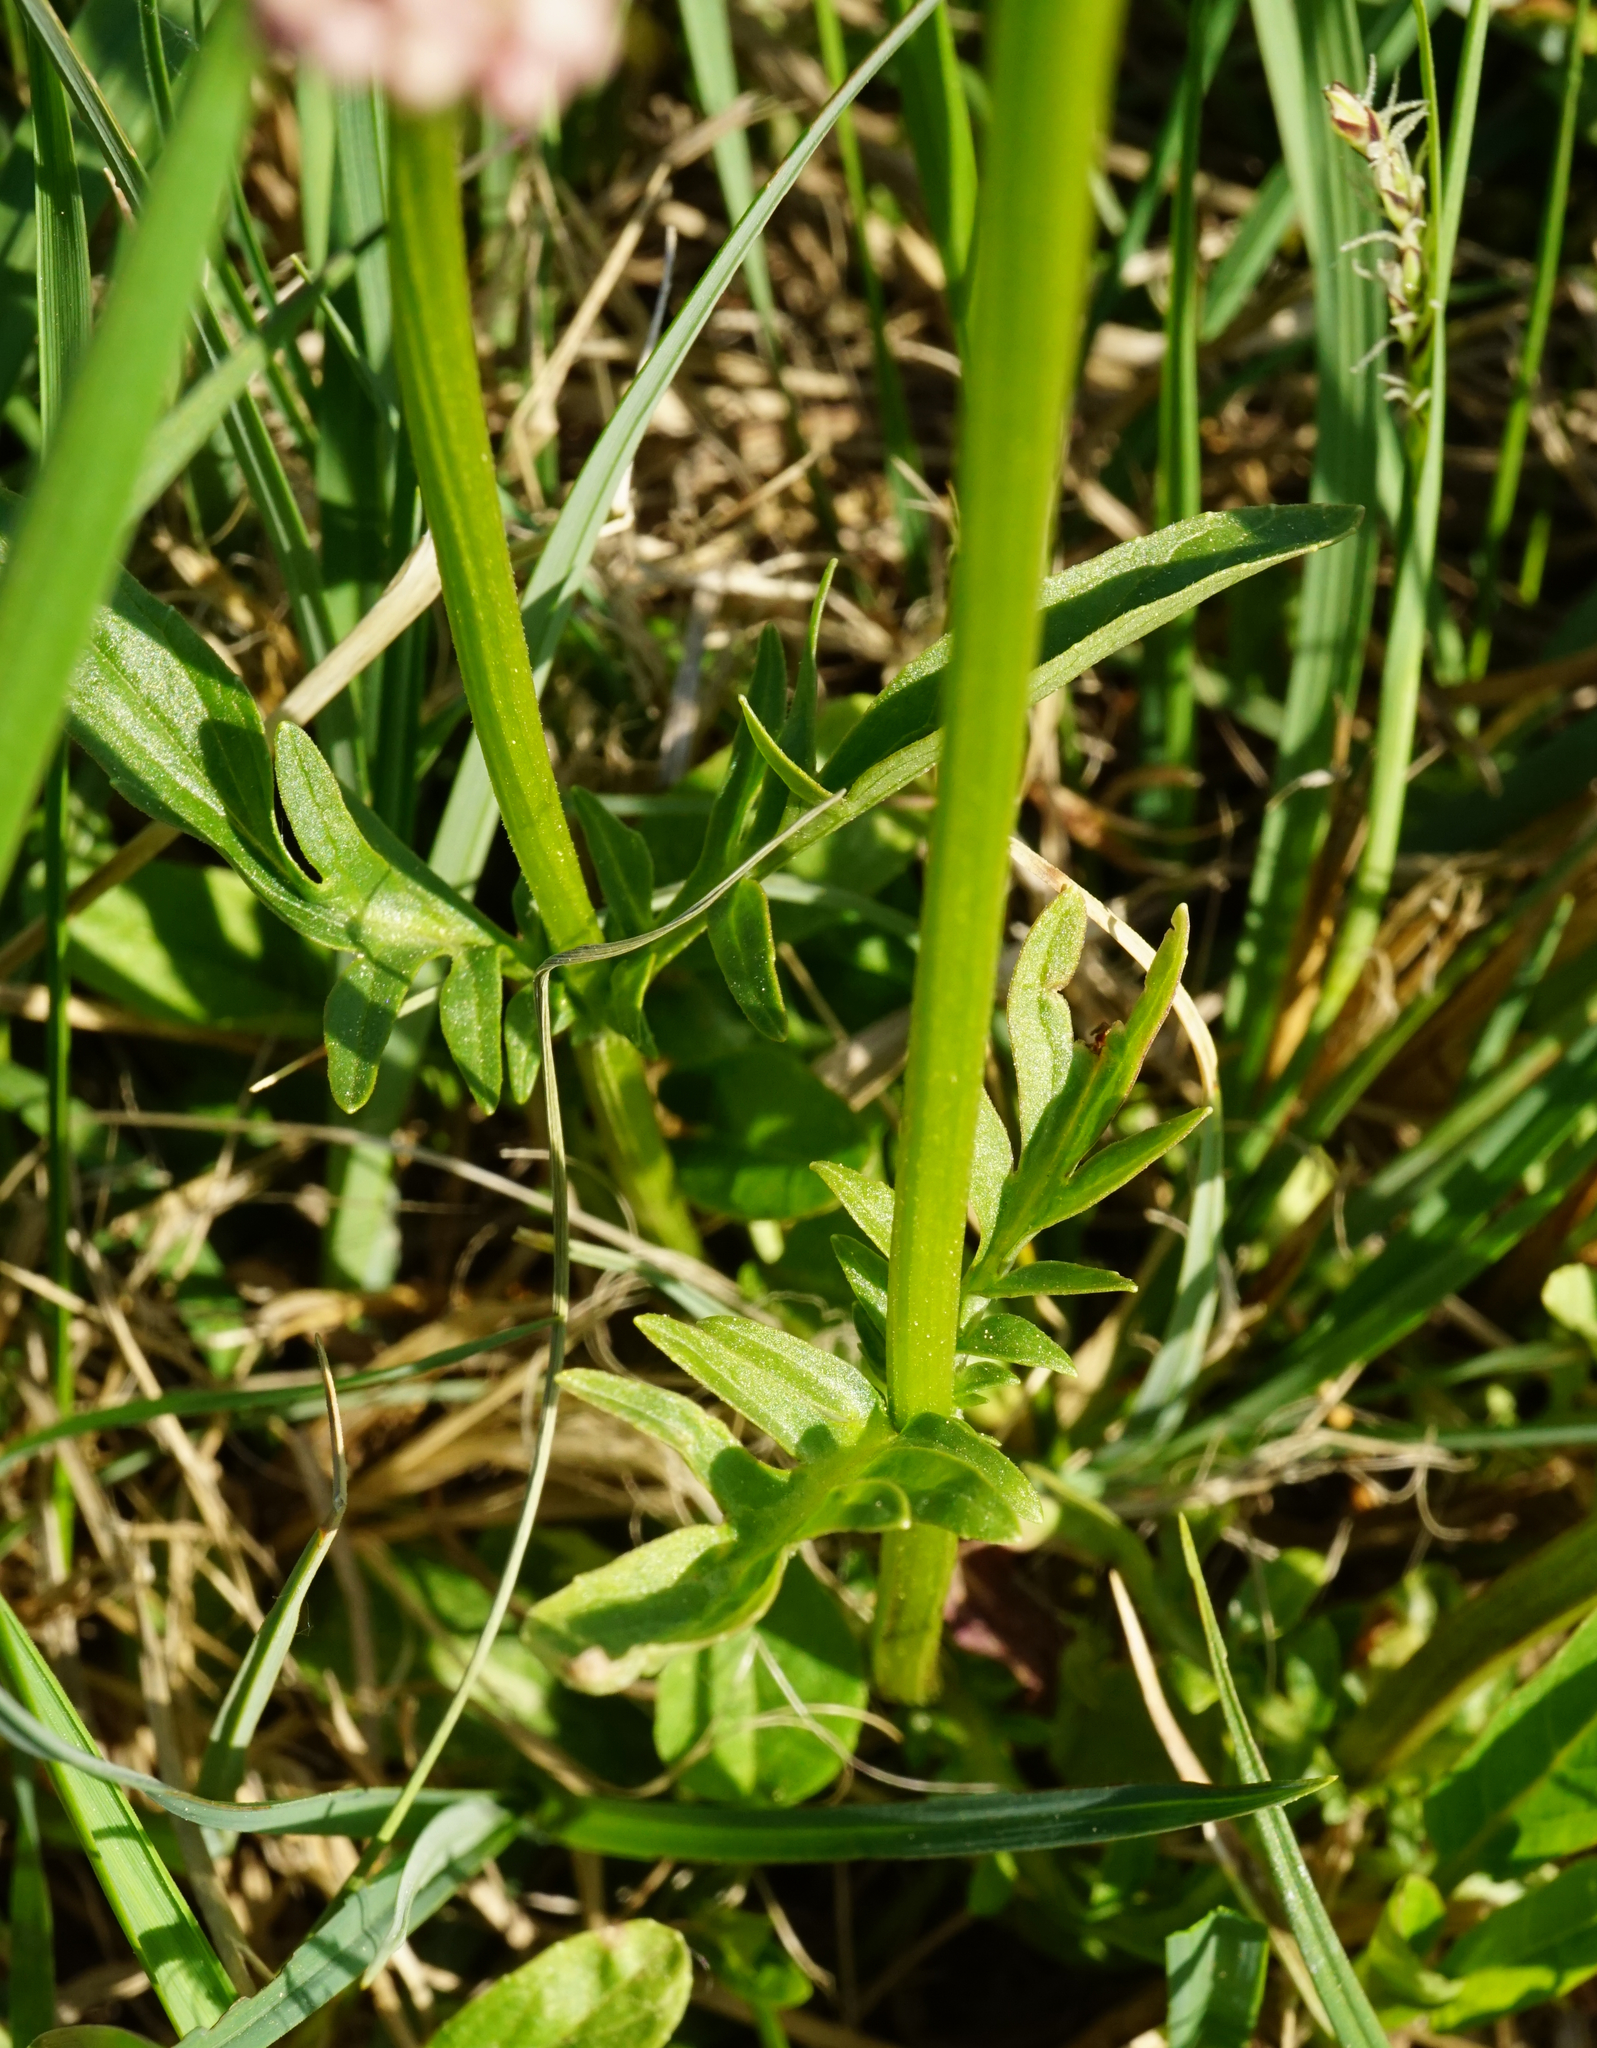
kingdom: Plantae
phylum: Tracheophyta
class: Magnoliopsida
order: Dipsacales
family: Caprifoliaceae
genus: Valeriana
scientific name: Valeriana dioica
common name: Marsh valerian
